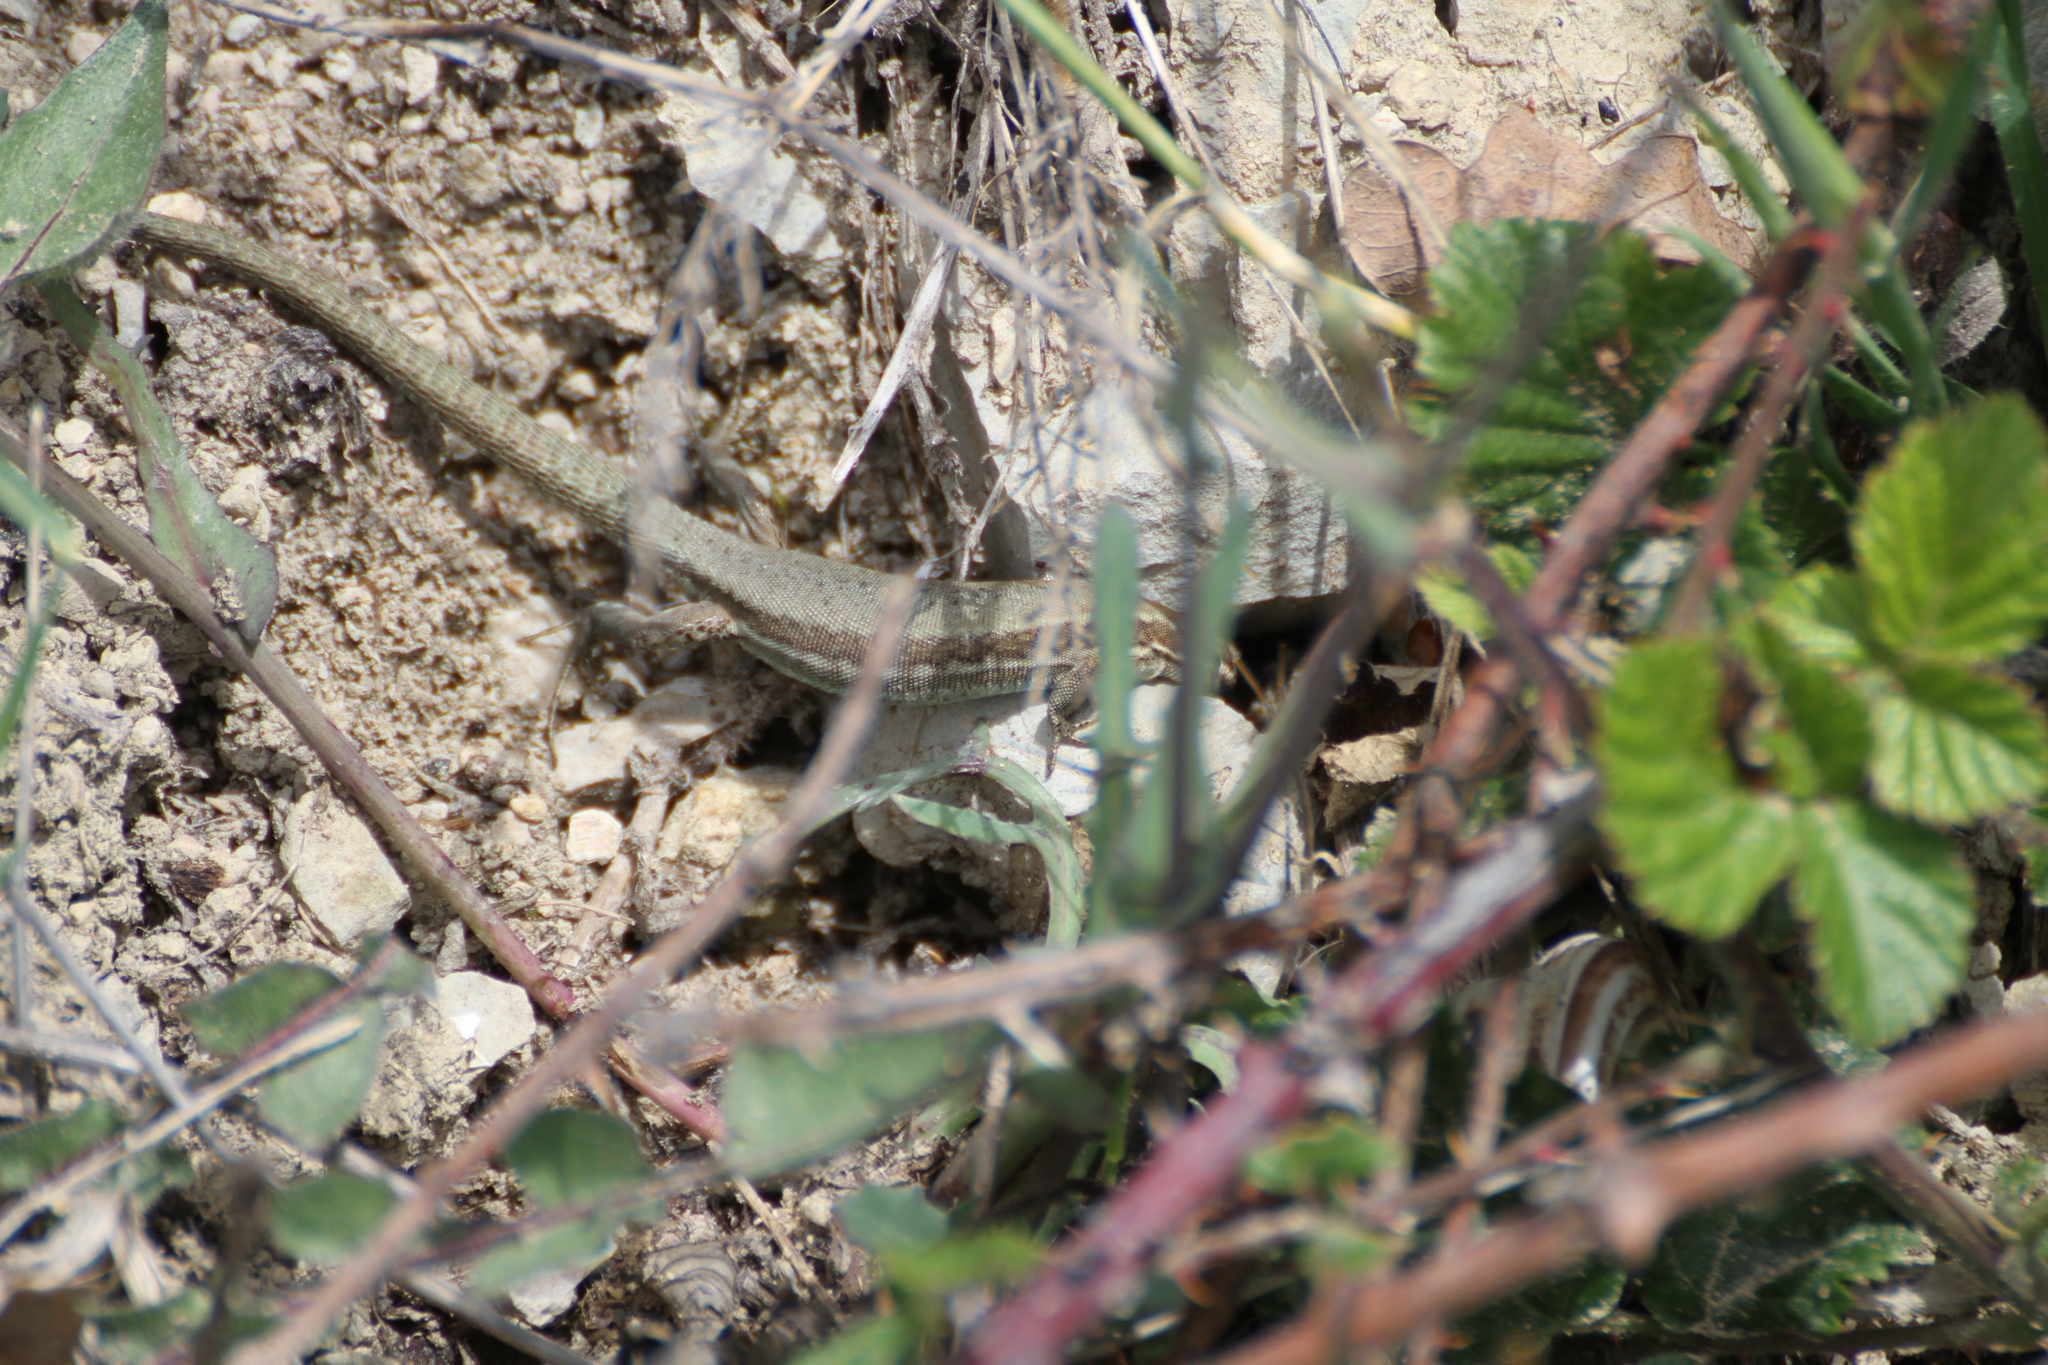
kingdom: Animalia
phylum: Chordata
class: Squamata
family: Lacertidae
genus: Podarcis
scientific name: Podarcis muralis
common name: Common wall lizard
